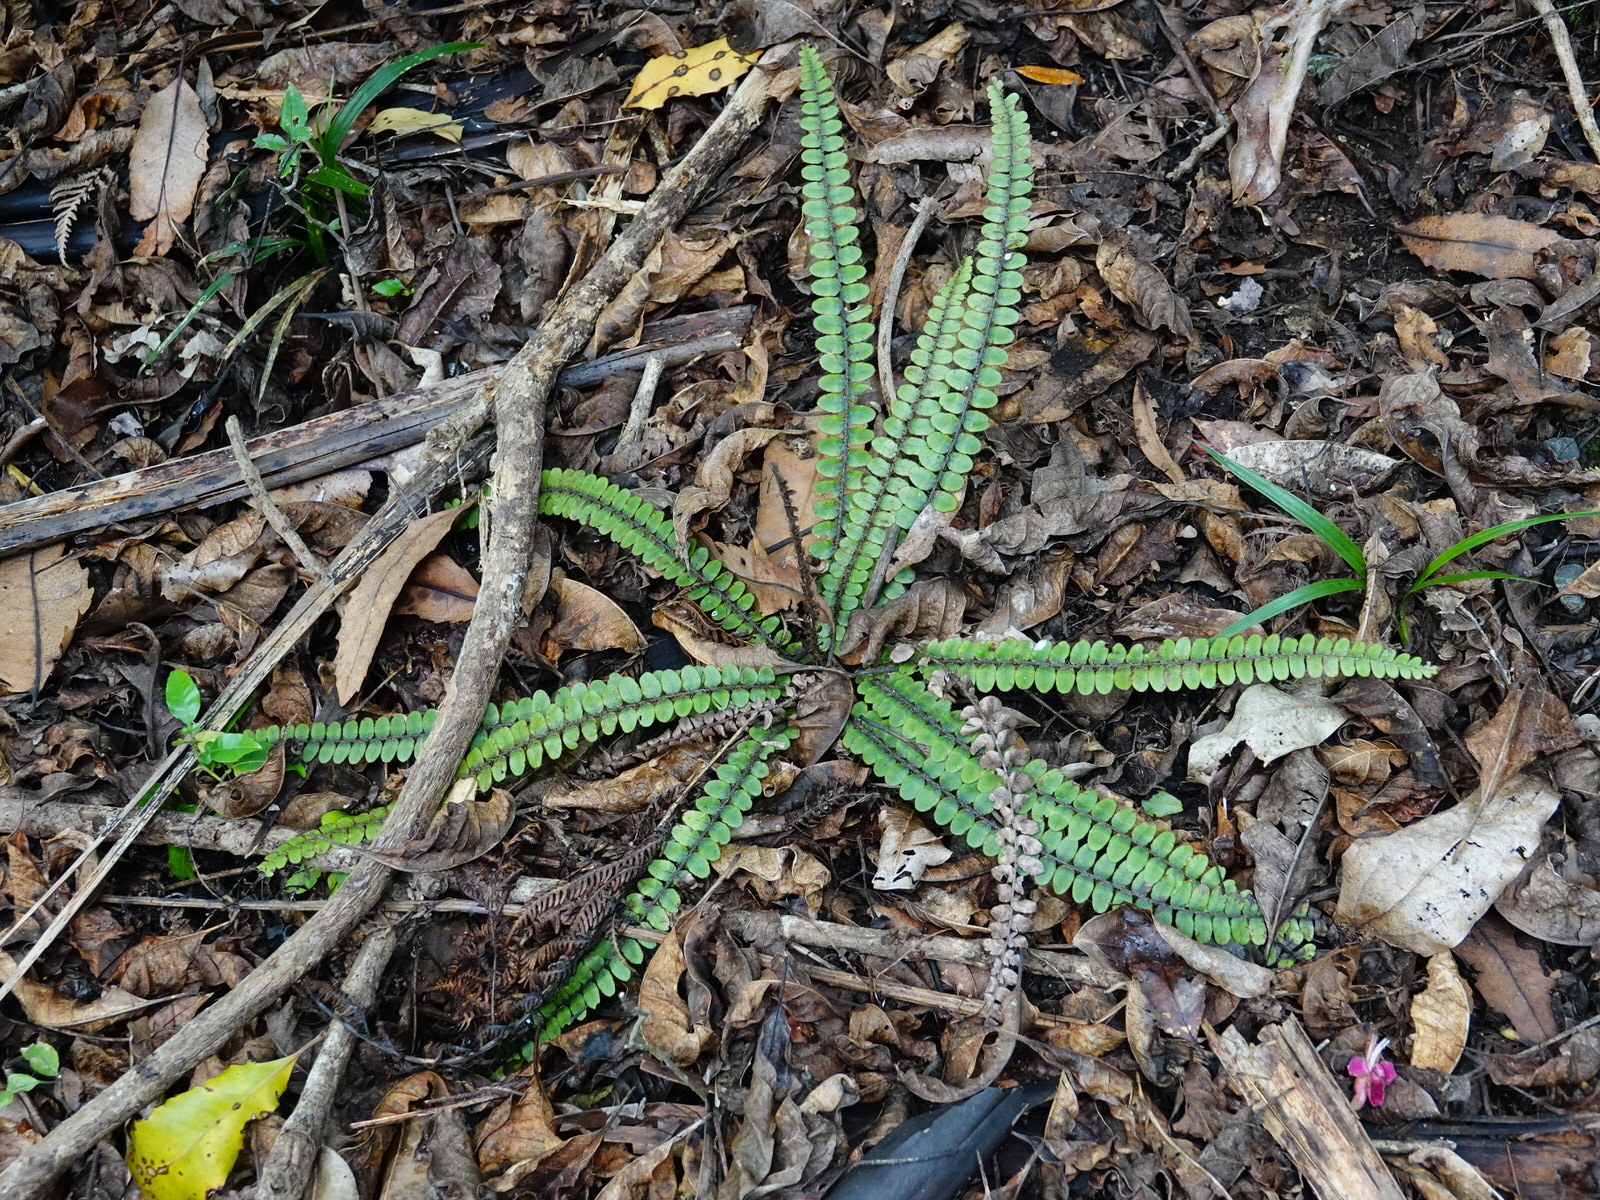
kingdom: Plantae
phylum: Tracheophyta
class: Polypodiopsida
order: Polypodiales
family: Blechnaceae
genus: Cranfillia
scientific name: Cranfillia fluviatilis
